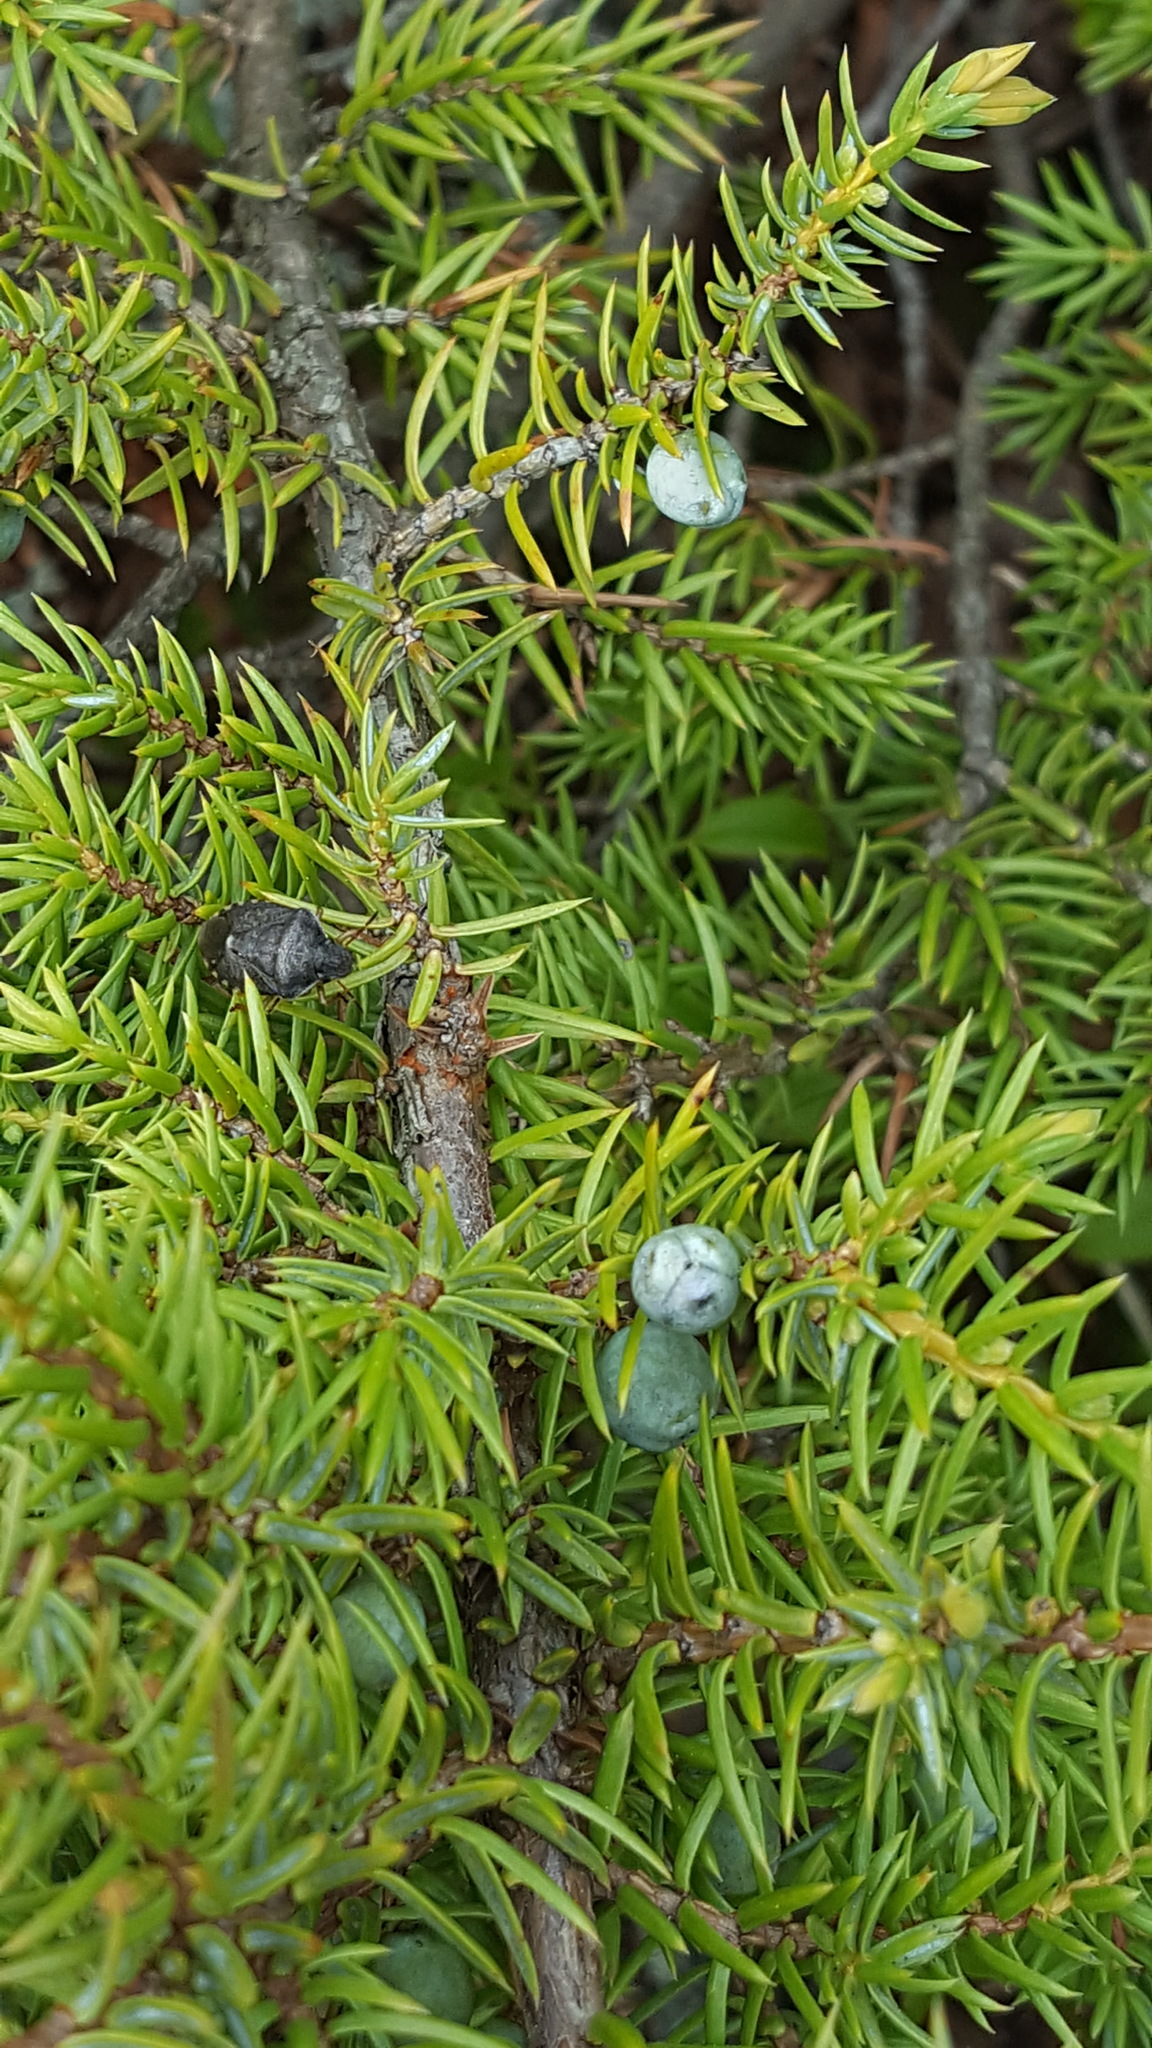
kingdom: Plantae
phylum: Tracheophyta
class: Pinopsida
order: Pinales
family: Cupressaceae
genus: Juniperus
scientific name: Juniperus communis
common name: Common juniper
